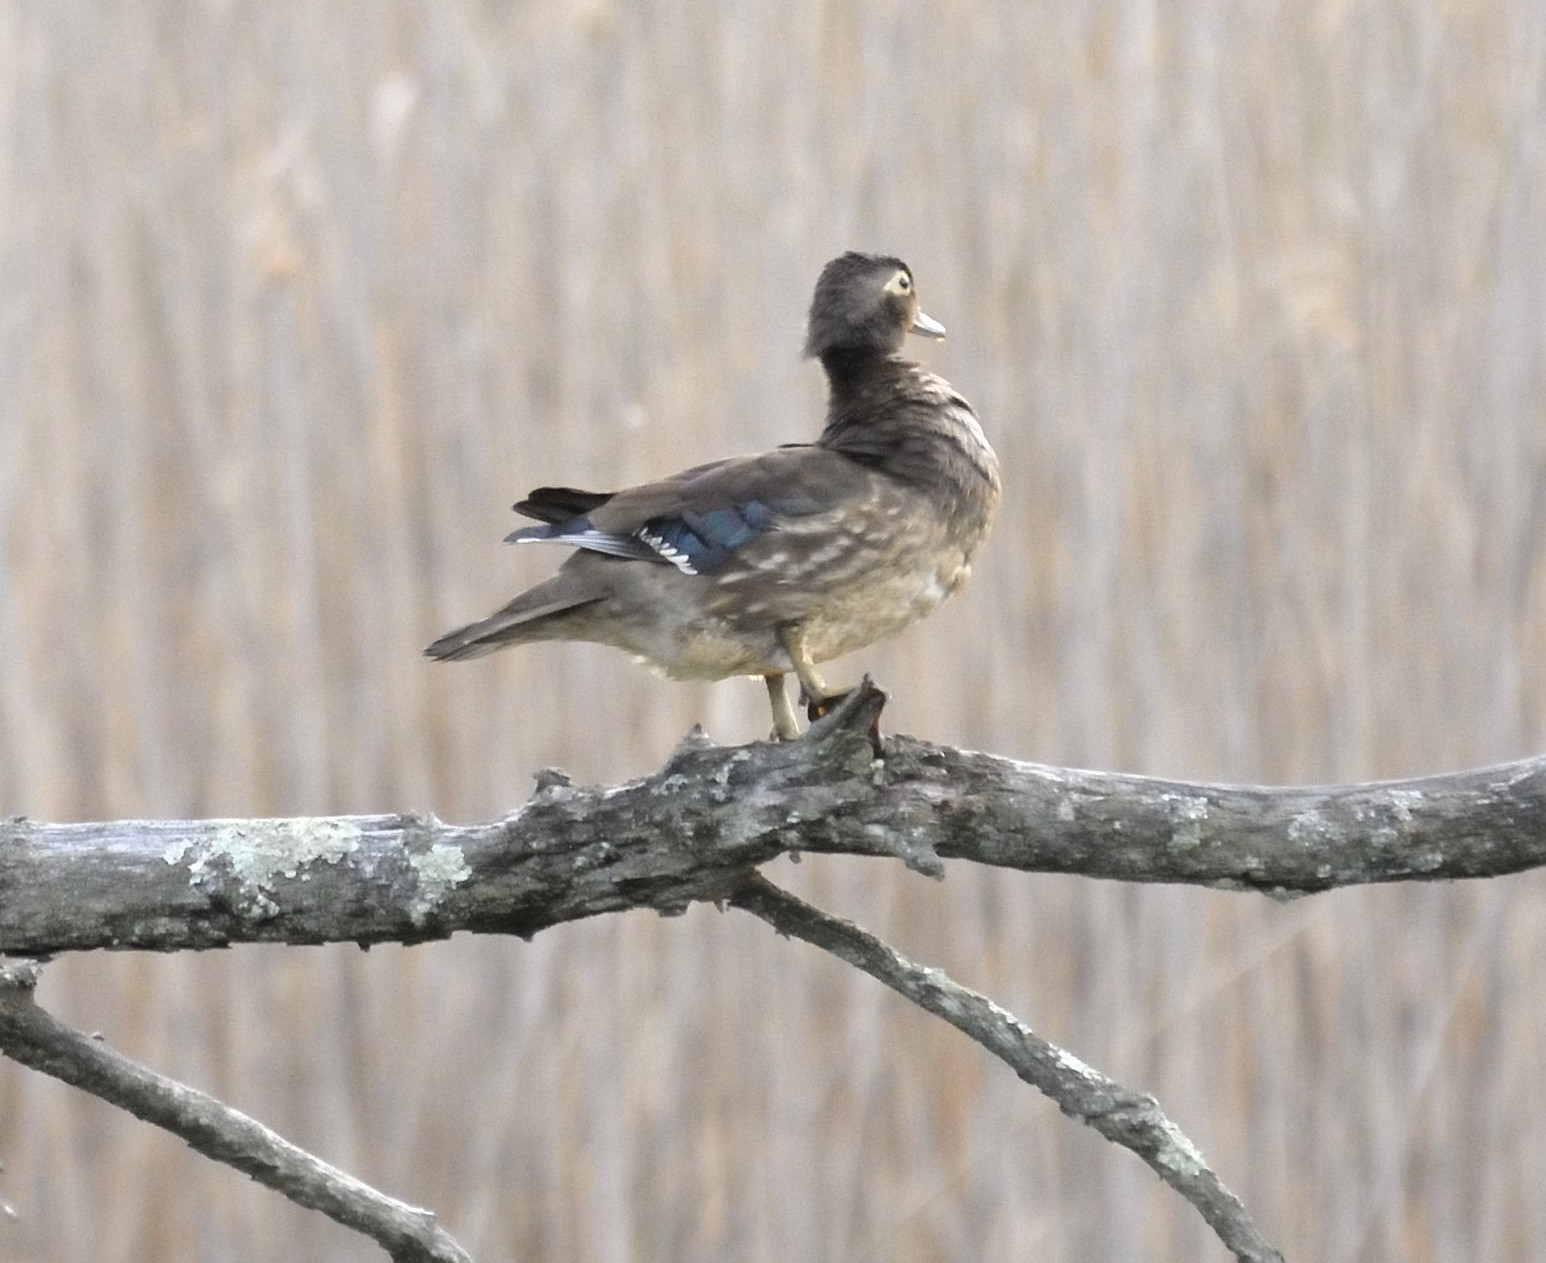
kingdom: Animalia
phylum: Chordata
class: Aves
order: Anseriformes
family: Anatidae
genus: Aix
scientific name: Aix sponsa
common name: Wood duck
